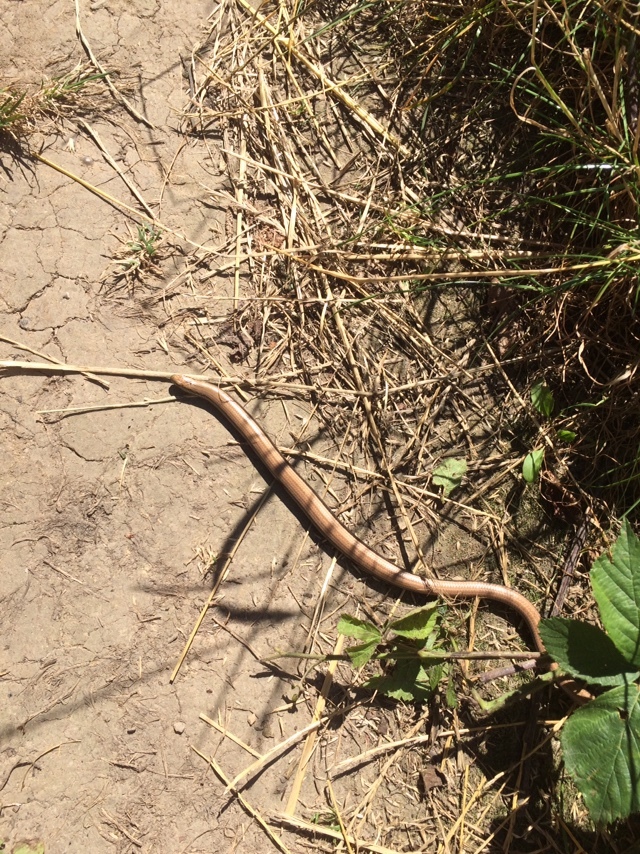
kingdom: Animalia
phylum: Chordata
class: Squamata
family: Anguidae
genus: Anguis
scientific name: Anguis fragilis
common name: Slow worm
